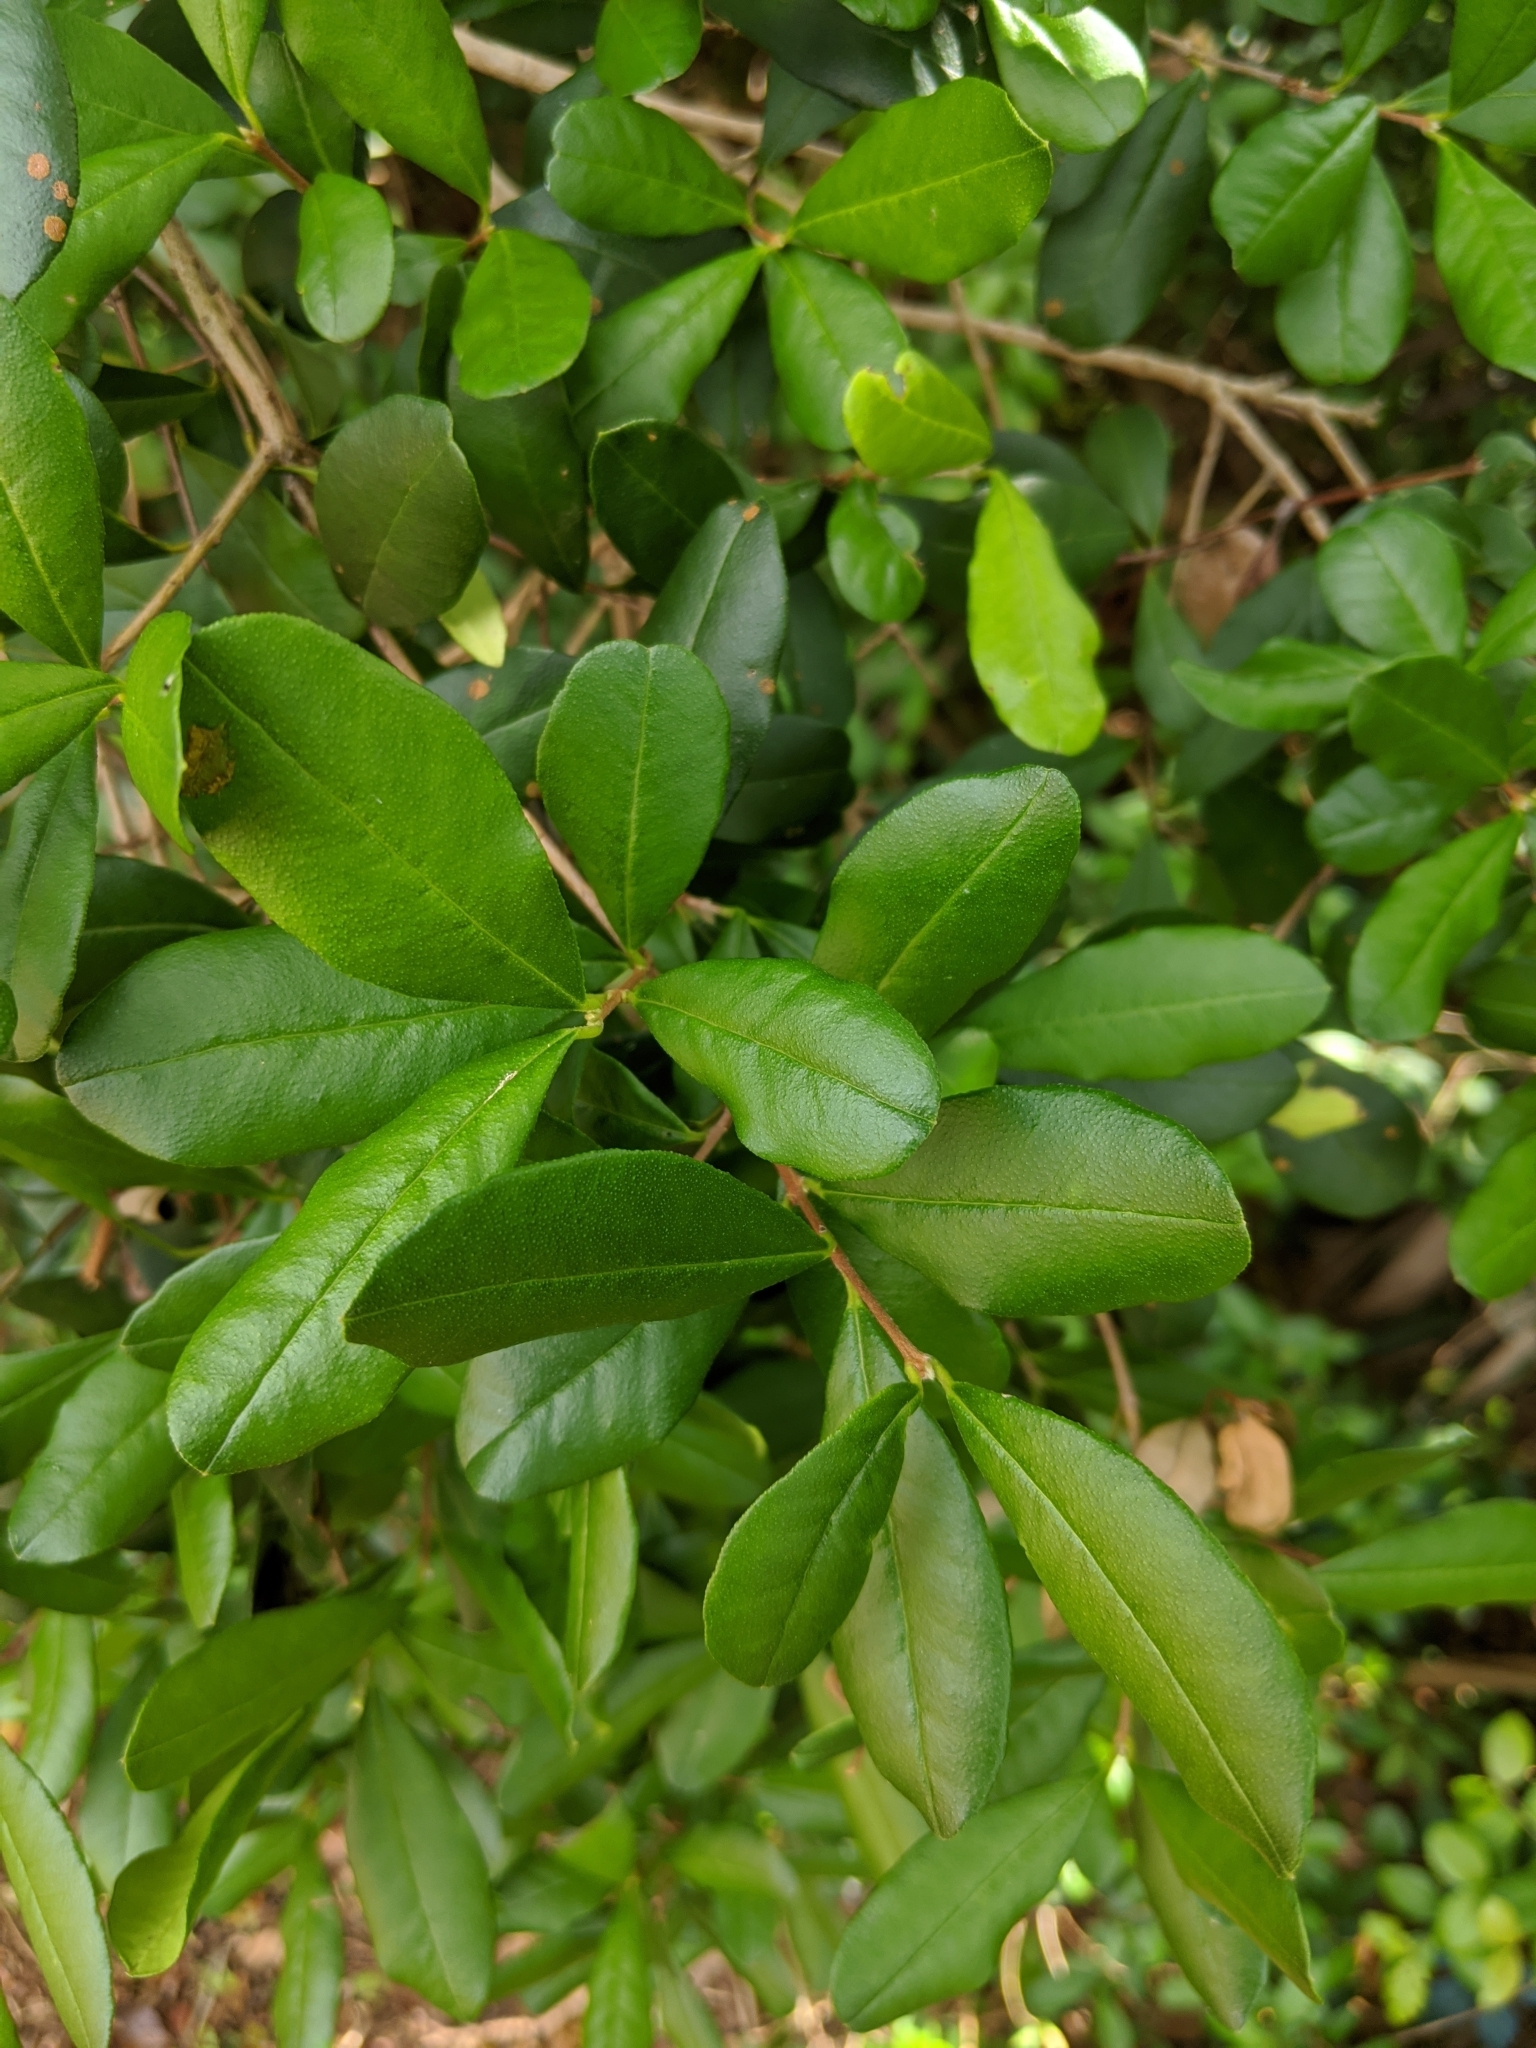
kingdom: Plantae
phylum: Tracheophyta
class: Magnoliopsida
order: Myrtales
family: Myrtaceae
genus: Myrcianthes
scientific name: Myrcianthes fragrans
